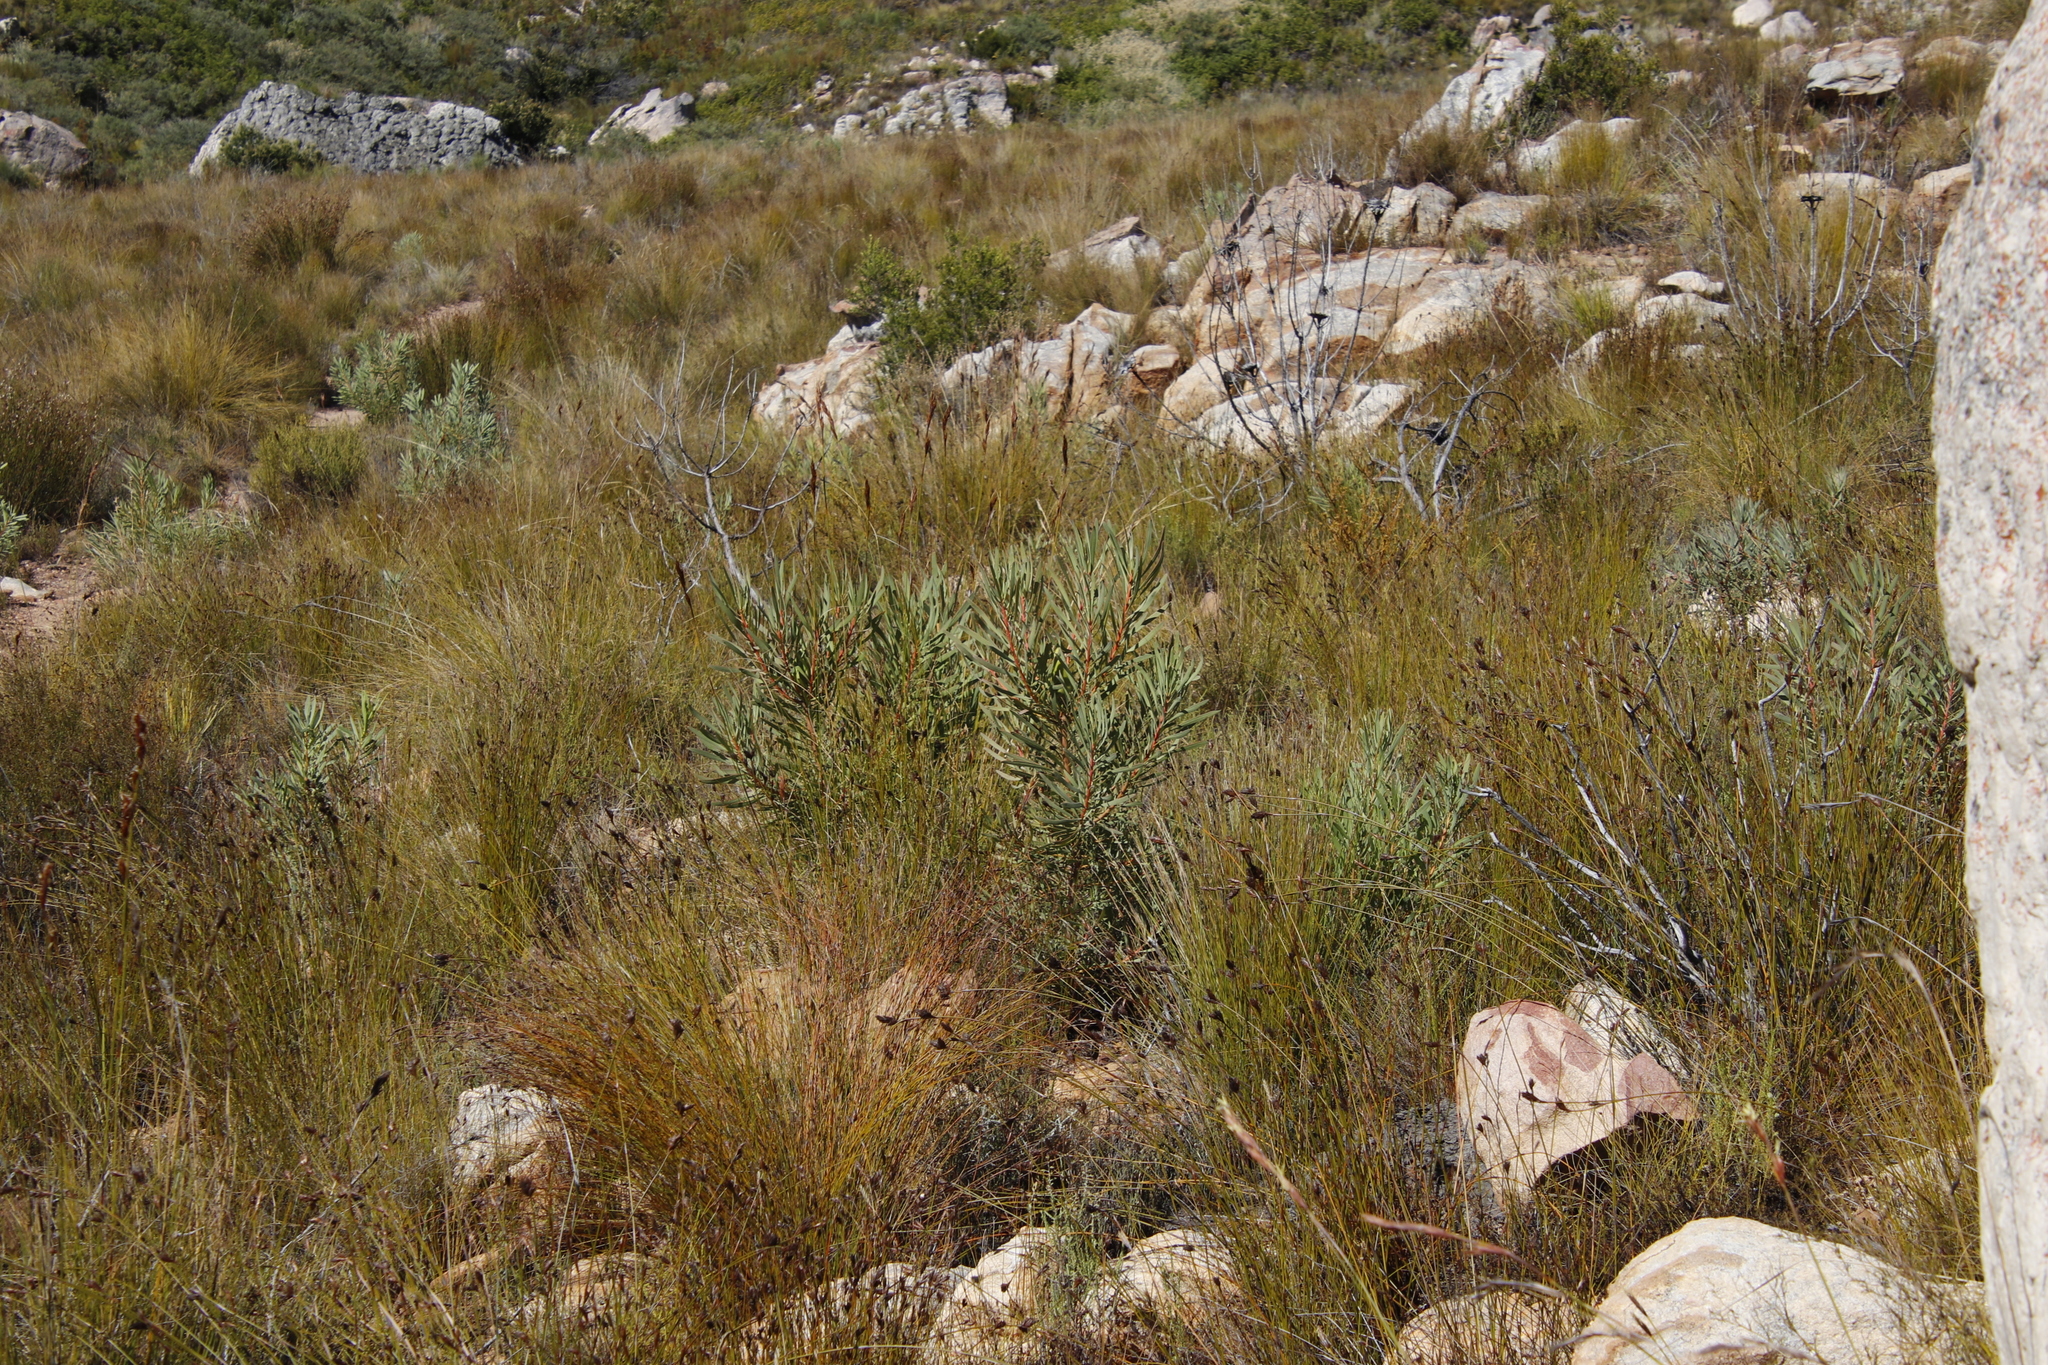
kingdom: Plantae
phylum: Tracheophyta
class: Magnoliopsida
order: Proteales
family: Proteaceae
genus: Protea
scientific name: Protea repens
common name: Sugarbush
